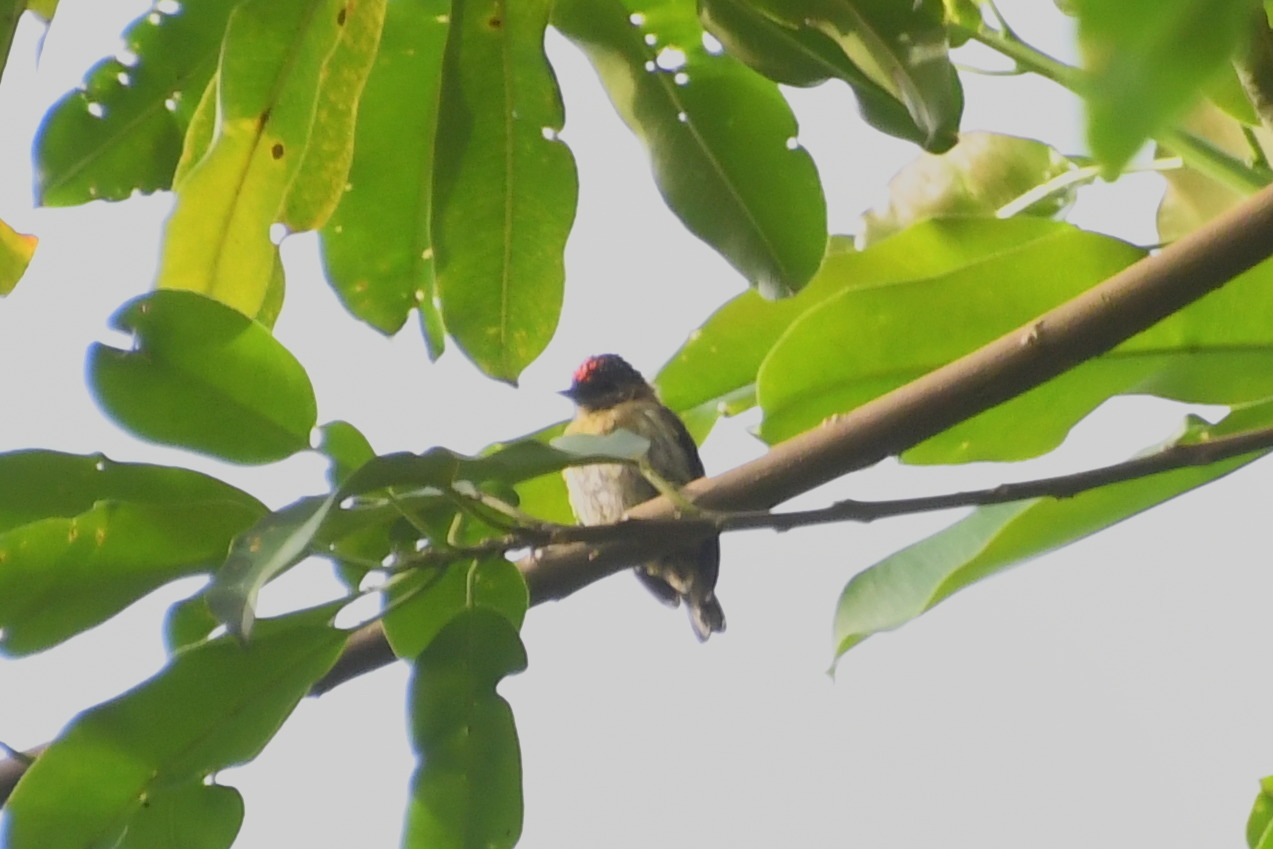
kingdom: Animalia
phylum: Chordata
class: Aves
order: Piciformes
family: Picidae
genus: Picumnus
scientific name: Picumnus olivaceus
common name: Olivaceous piculet
